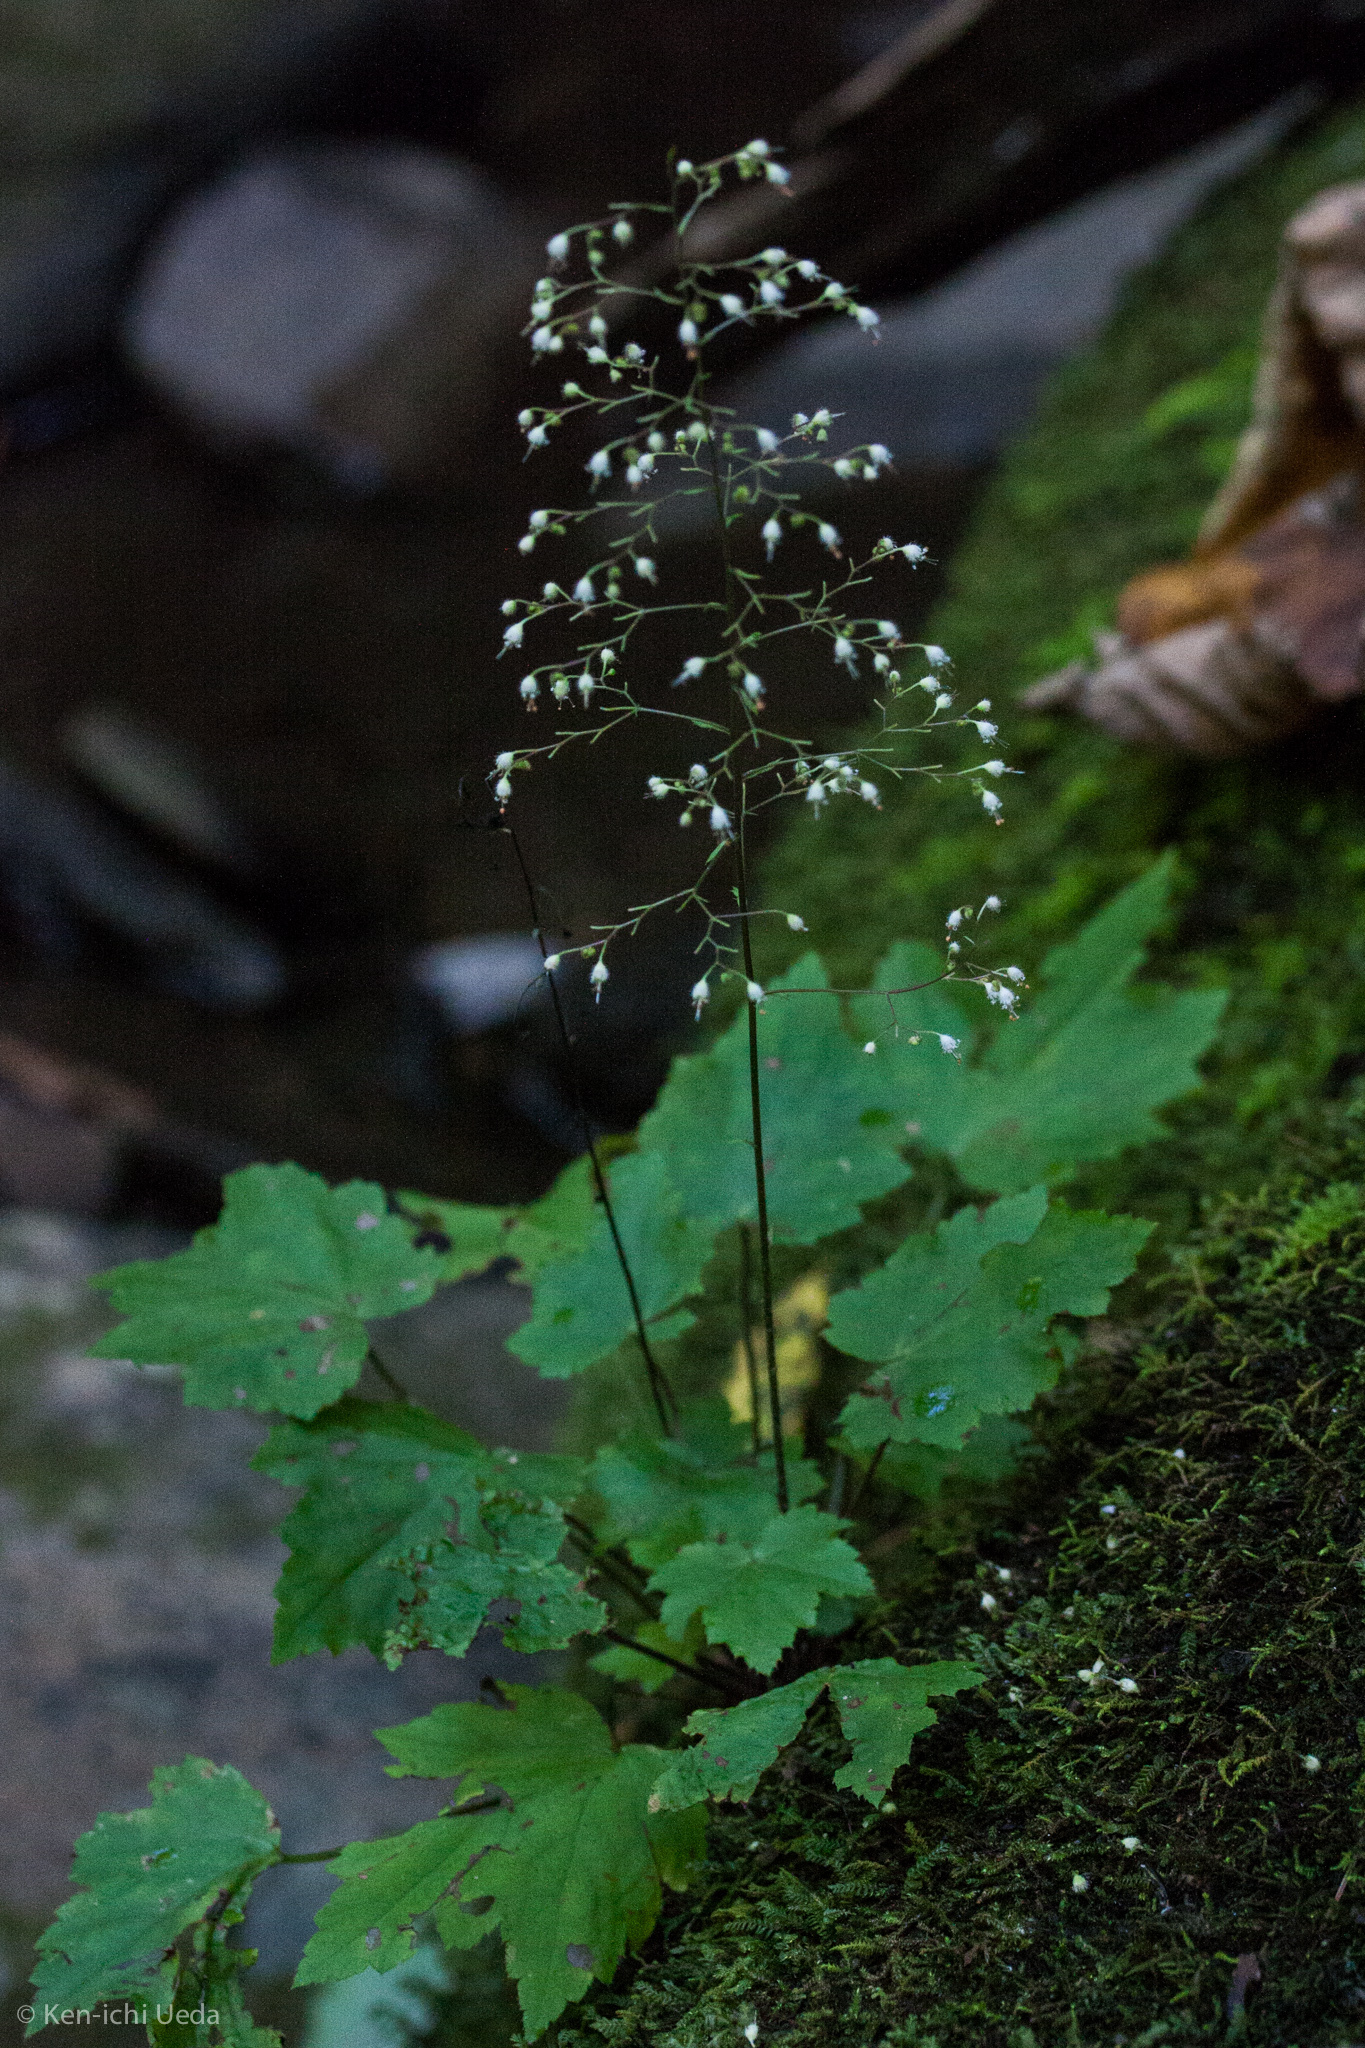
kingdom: Plantae
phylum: Tracheophyta
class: Magnoliopsida
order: Saxifragales
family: Saxifragaceae
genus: Heuchera
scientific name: Heuchera villosa
